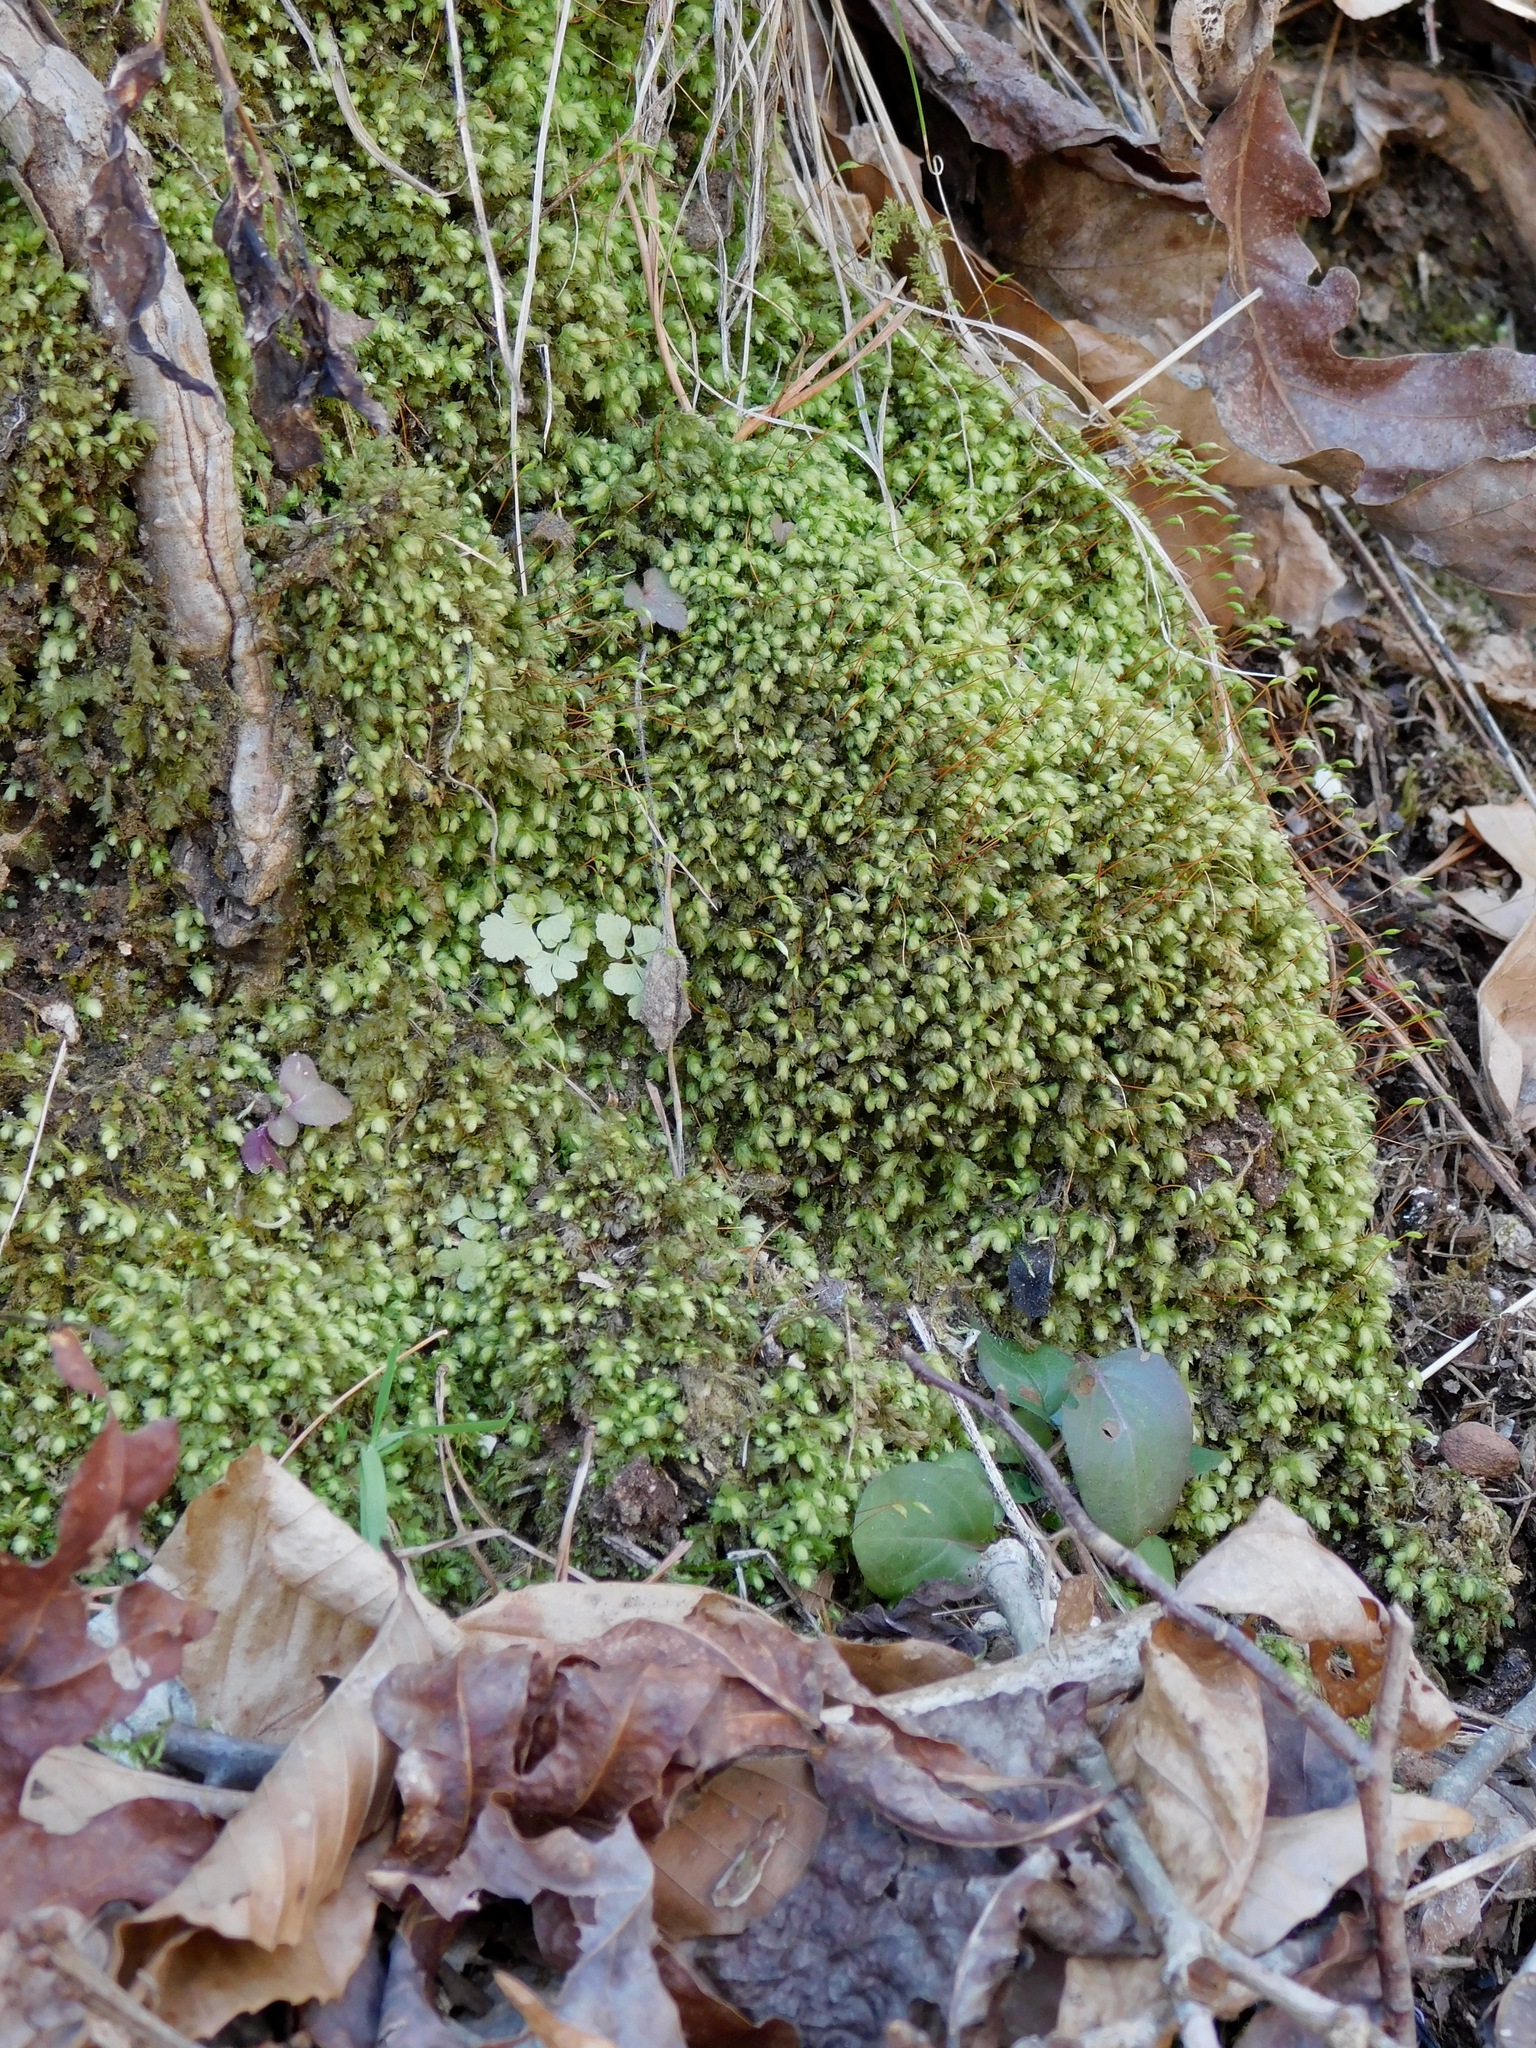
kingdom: Plantae
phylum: Bryophyta
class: Bryopsida
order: Aulacomniales
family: Aulacomniaceae
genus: Aulacomnium
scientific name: Aulacomnium heterostichum
